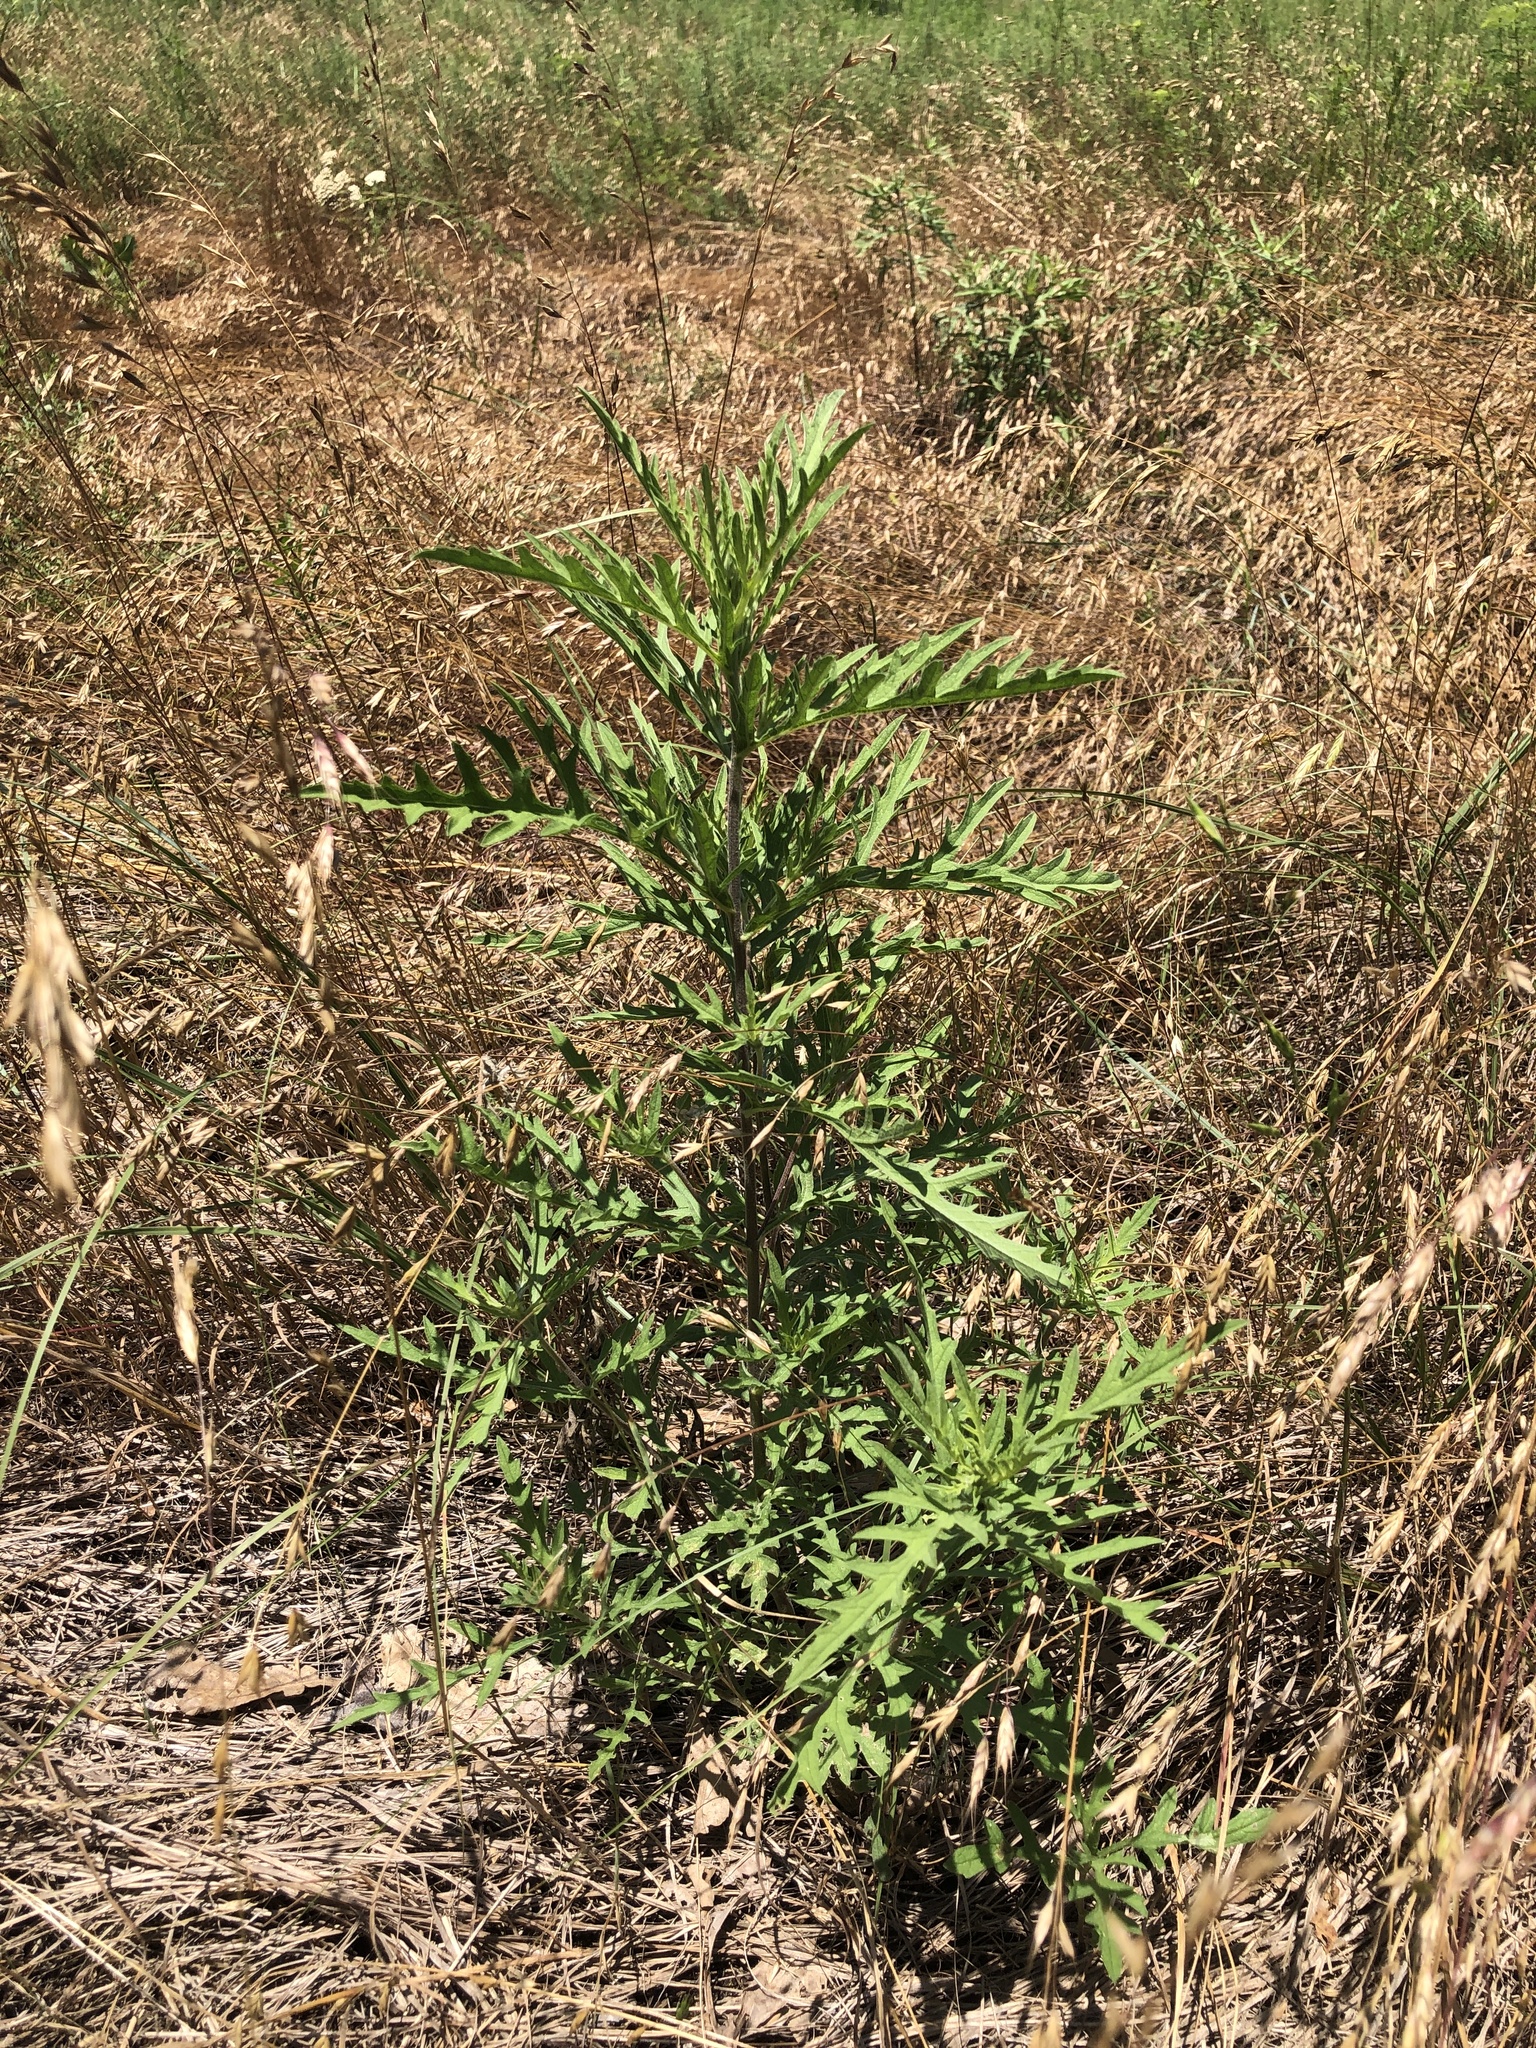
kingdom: Plantae
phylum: Tracheophyta
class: Magnoliopsida
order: Asterales
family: Asteraceae
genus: Ambrosia
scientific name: Ambrosia psilostachya
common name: Perennial ragweed
